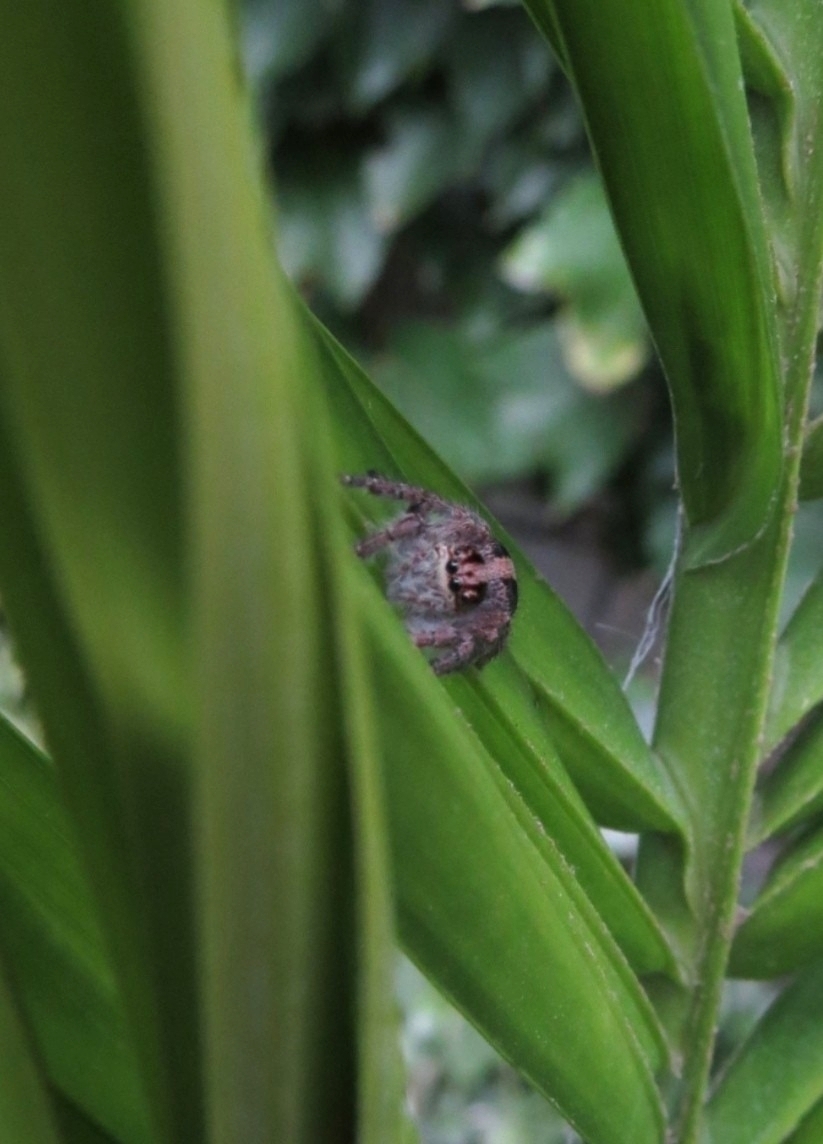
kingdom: Animalia
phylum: Arthropoda
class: Arachnida
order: Araneae
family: Salticidae
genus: Megafreya
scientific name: Megafreya sutrix
